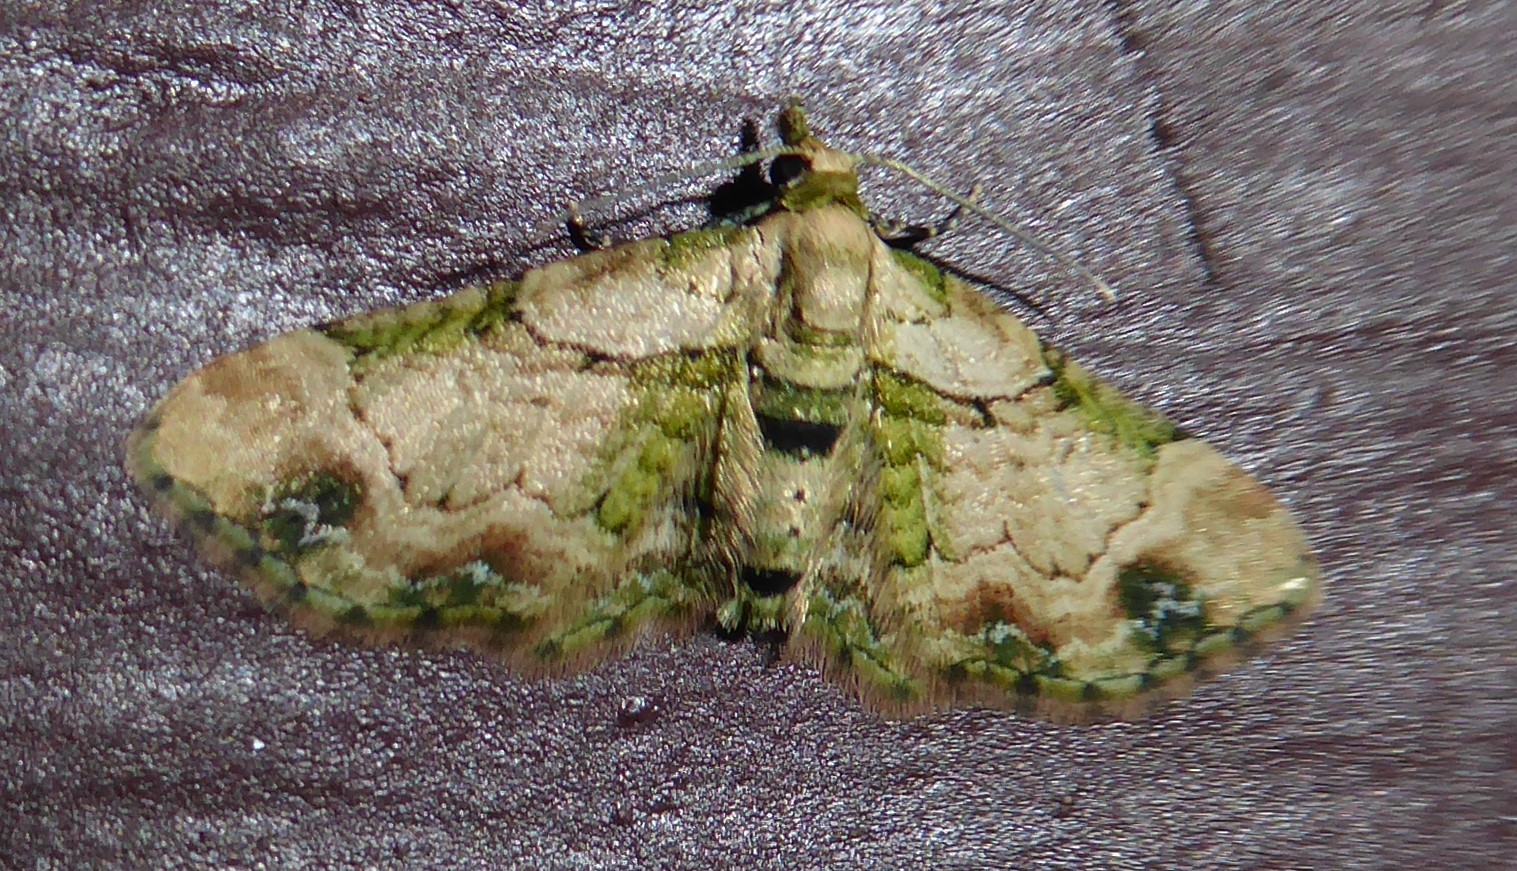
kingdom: Animalia
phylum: Arthropoda
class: Insecta
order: Lepidoptera
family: Geometridae
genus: Chloroclystis
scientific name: Chloroclystis
